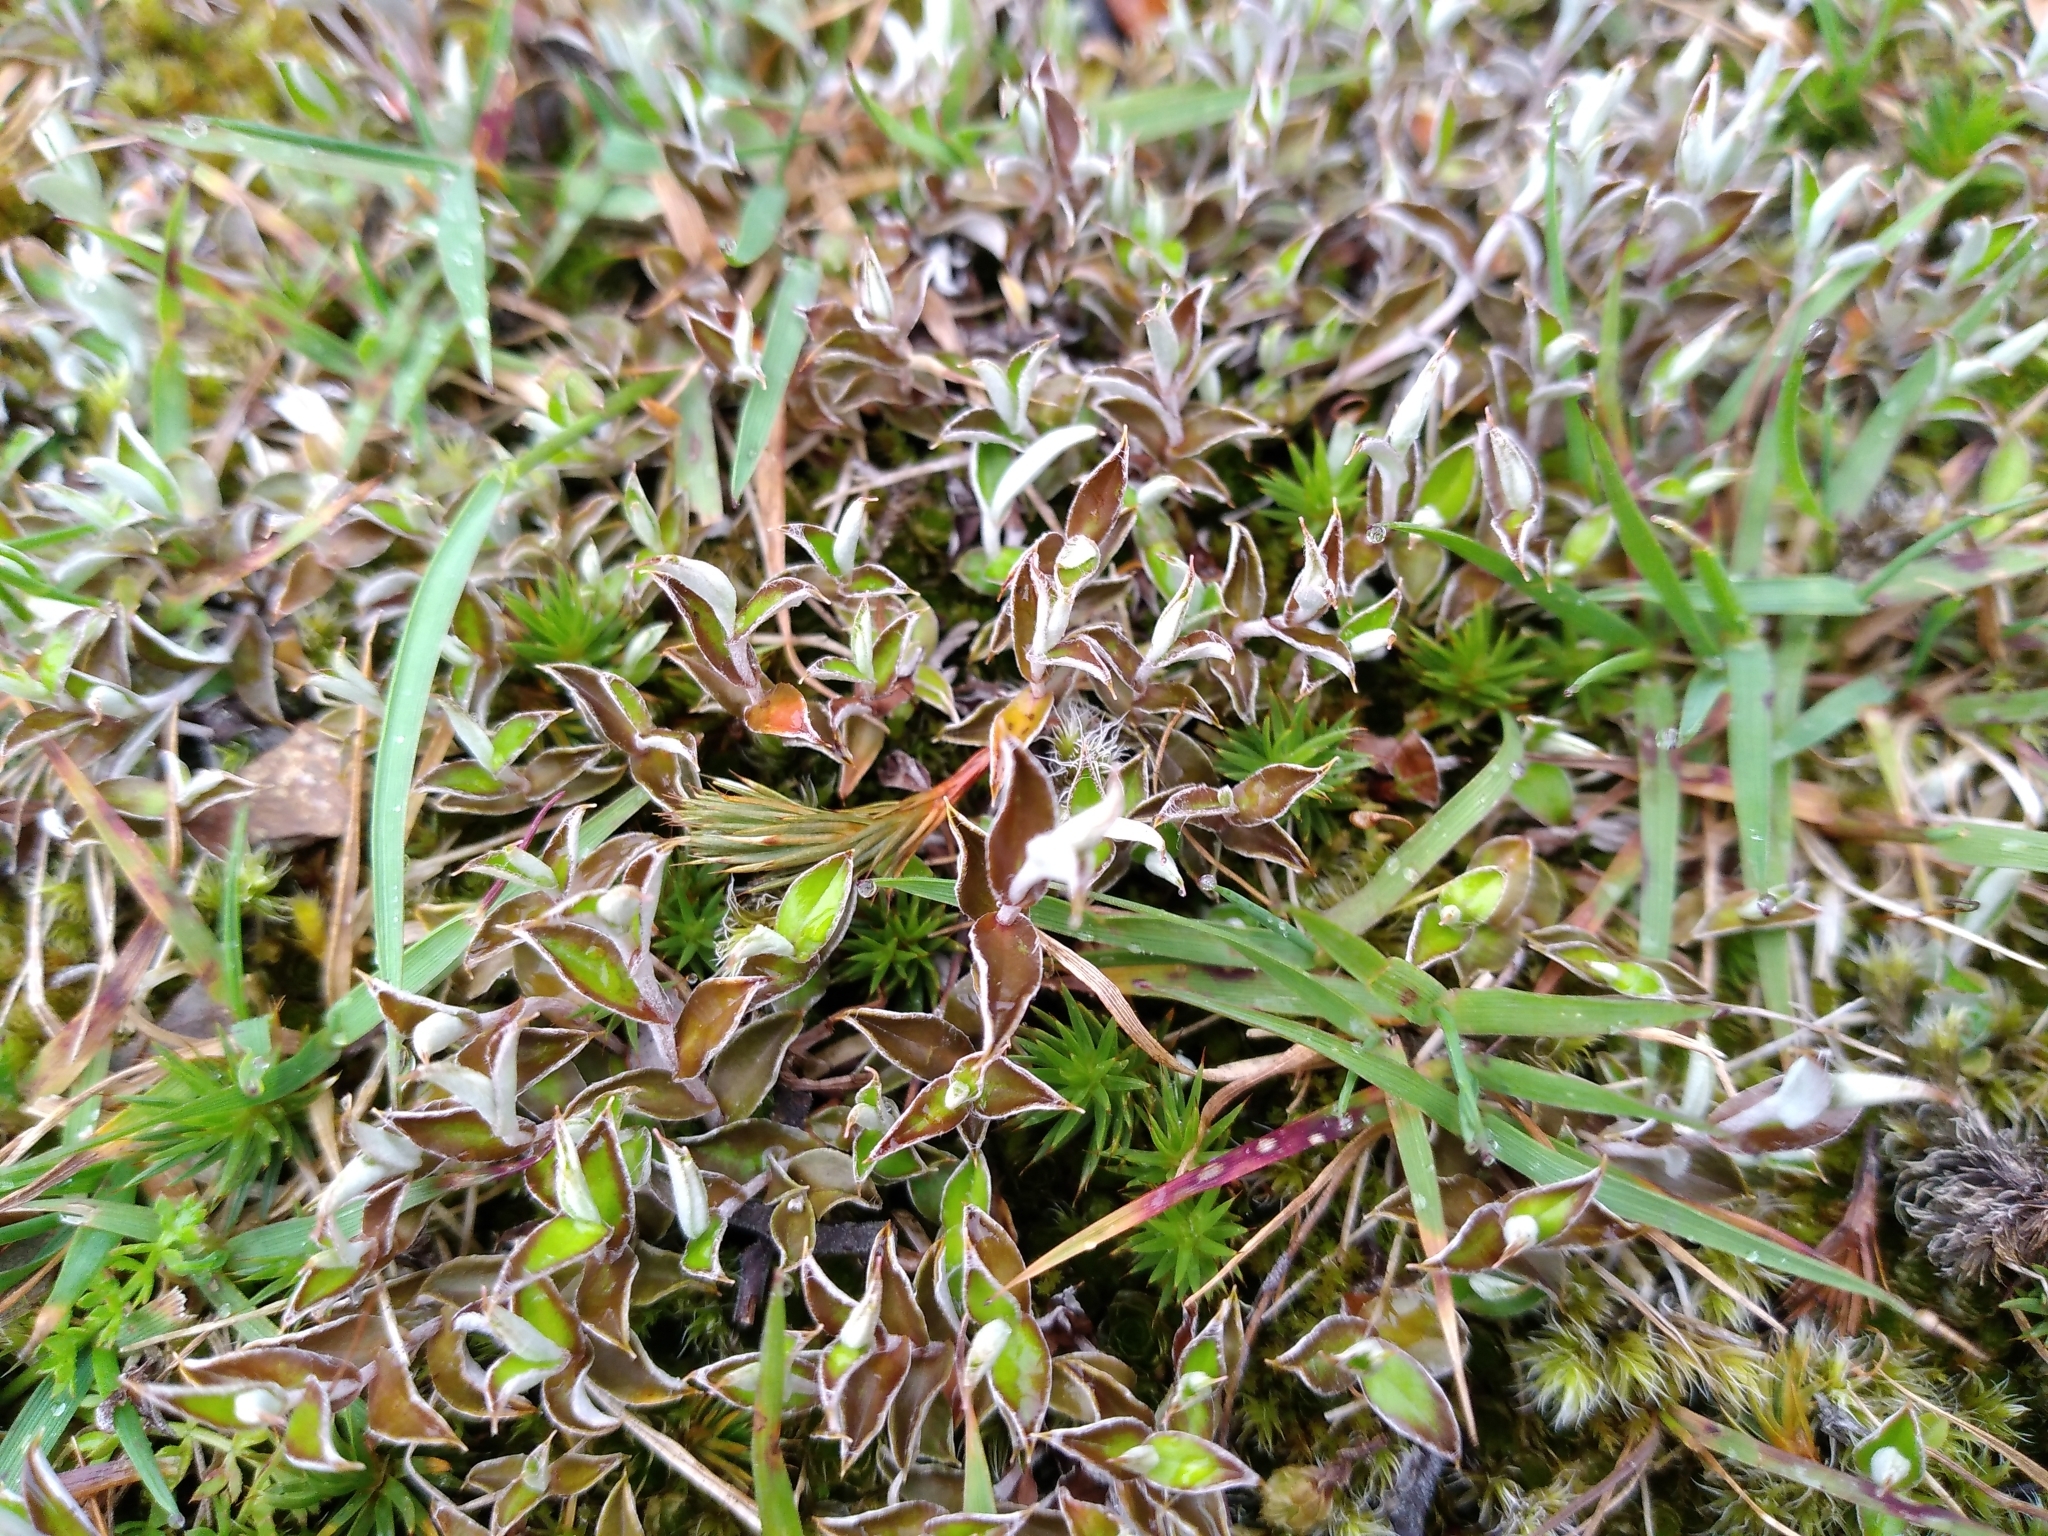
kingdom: Plantae
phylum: Tracheophyta
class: Magnoliopsida
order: Asterales
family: Asteraceae
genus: Helichrysum
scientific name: Helichrysum filicaule
